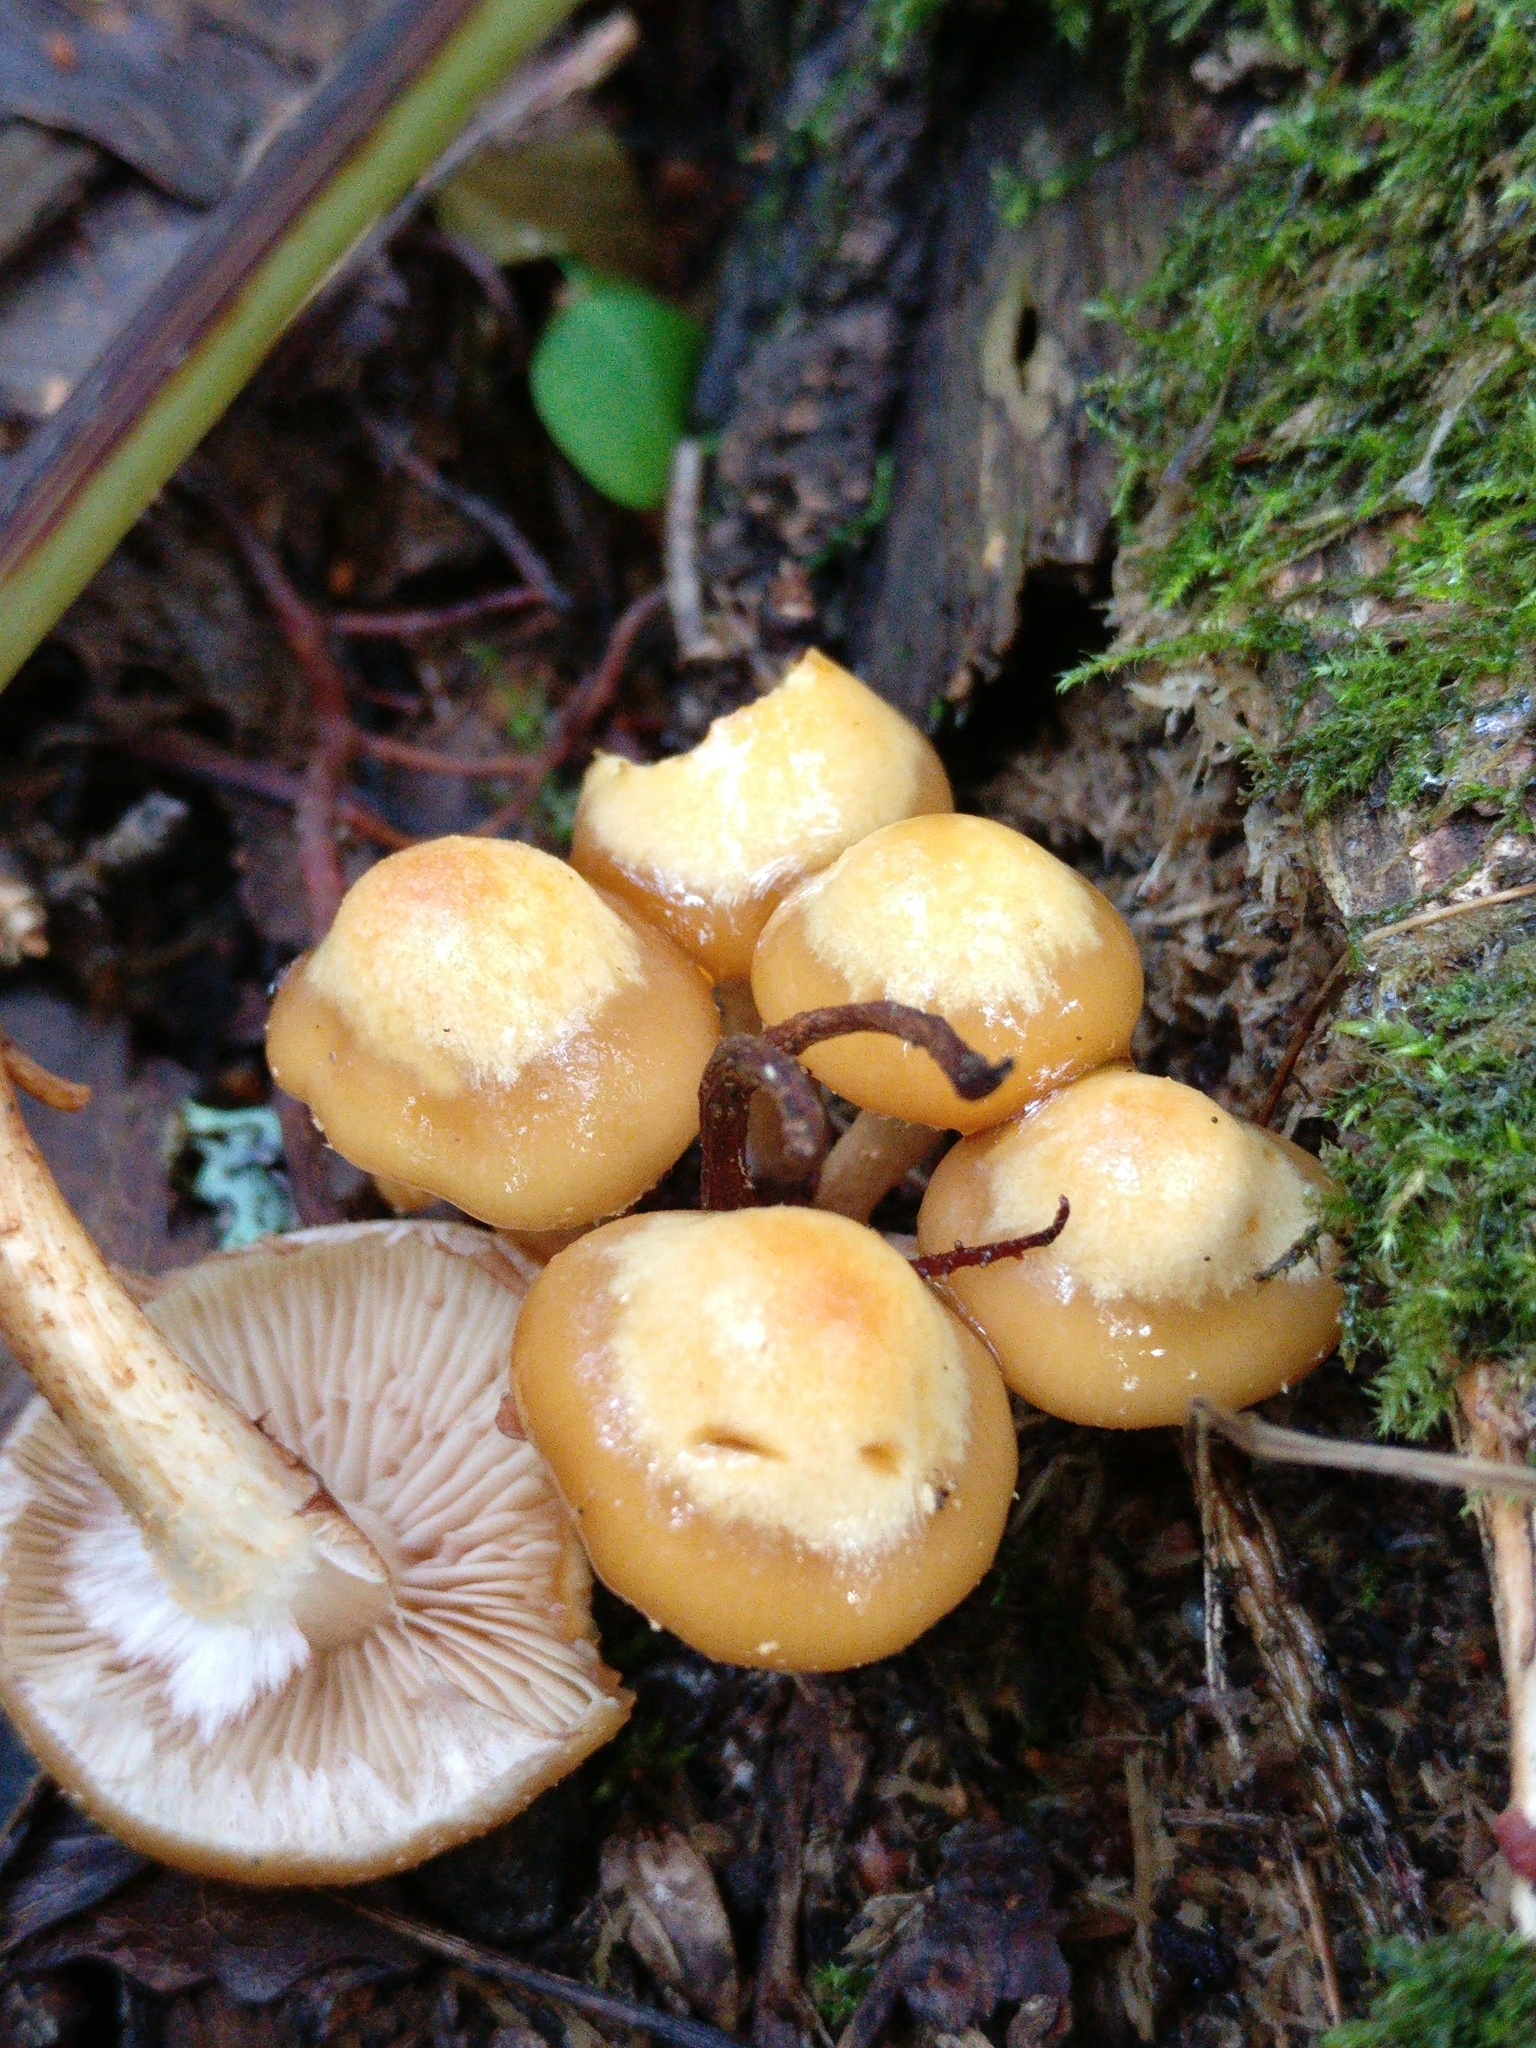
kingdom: Fungi
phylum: Basidiomycota
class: Agaricomycetes
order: Agaricales
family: Strophariaceae
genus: Kuehneromyces
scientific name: Kuehneromyces mutabilis
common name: Sheathed woodtuft
